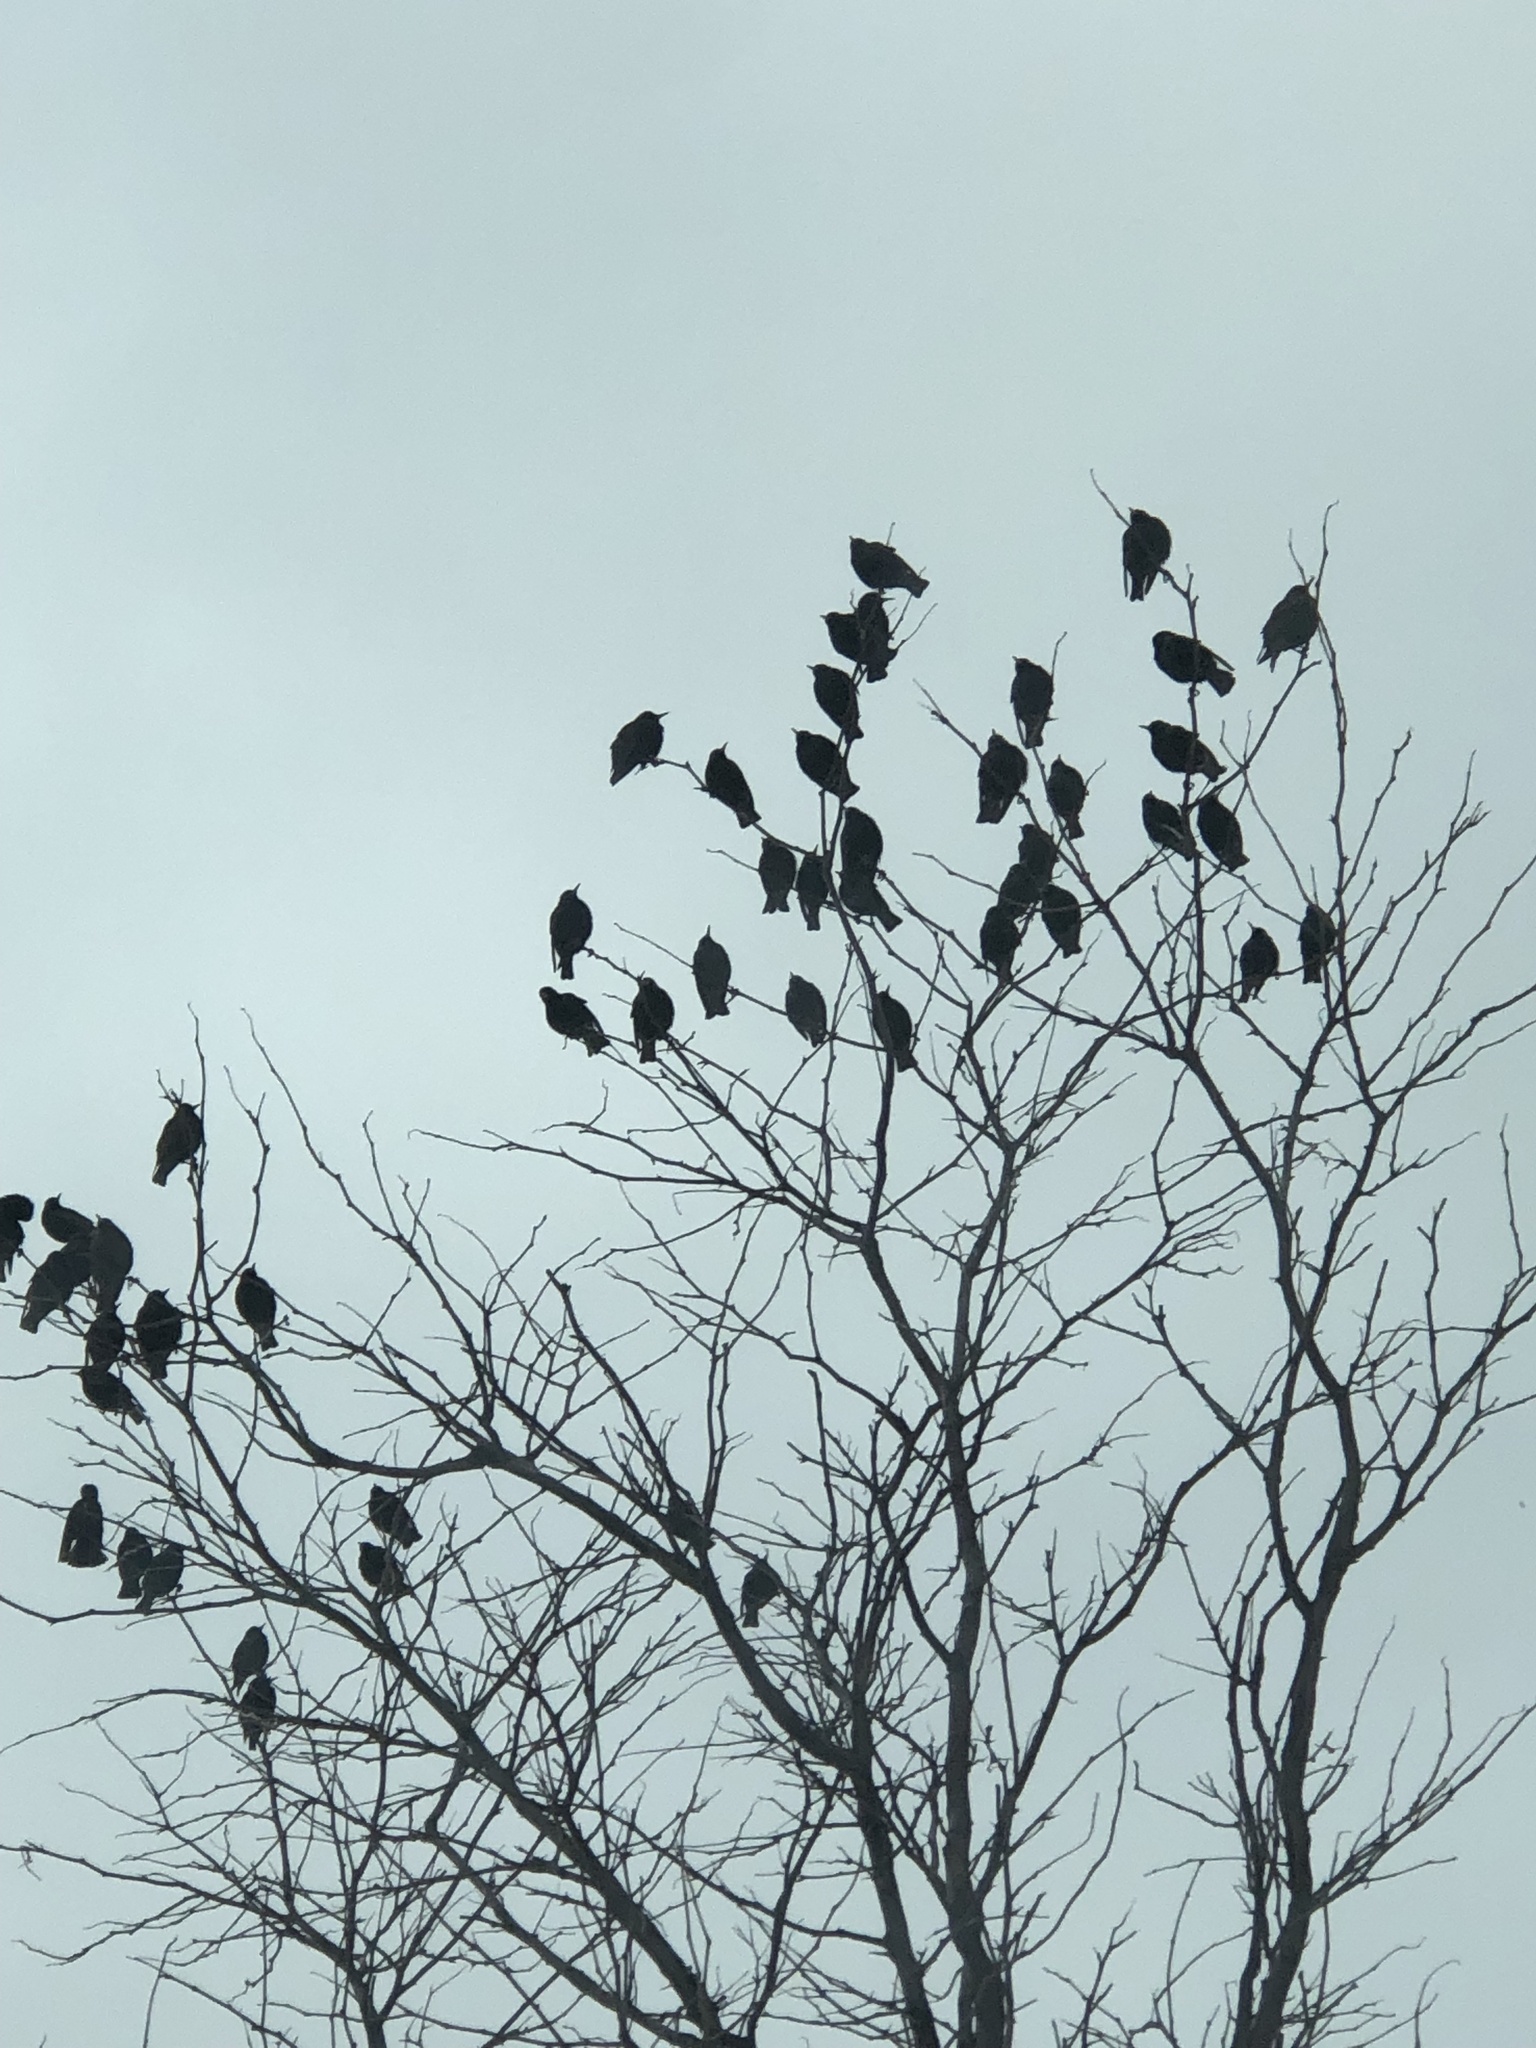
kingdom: Animalia
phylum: Chordata
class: Aves
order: Passeriformes
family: Sturnidae
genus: Sturnus
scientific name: Sturnus vulgaris
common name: Common starling
